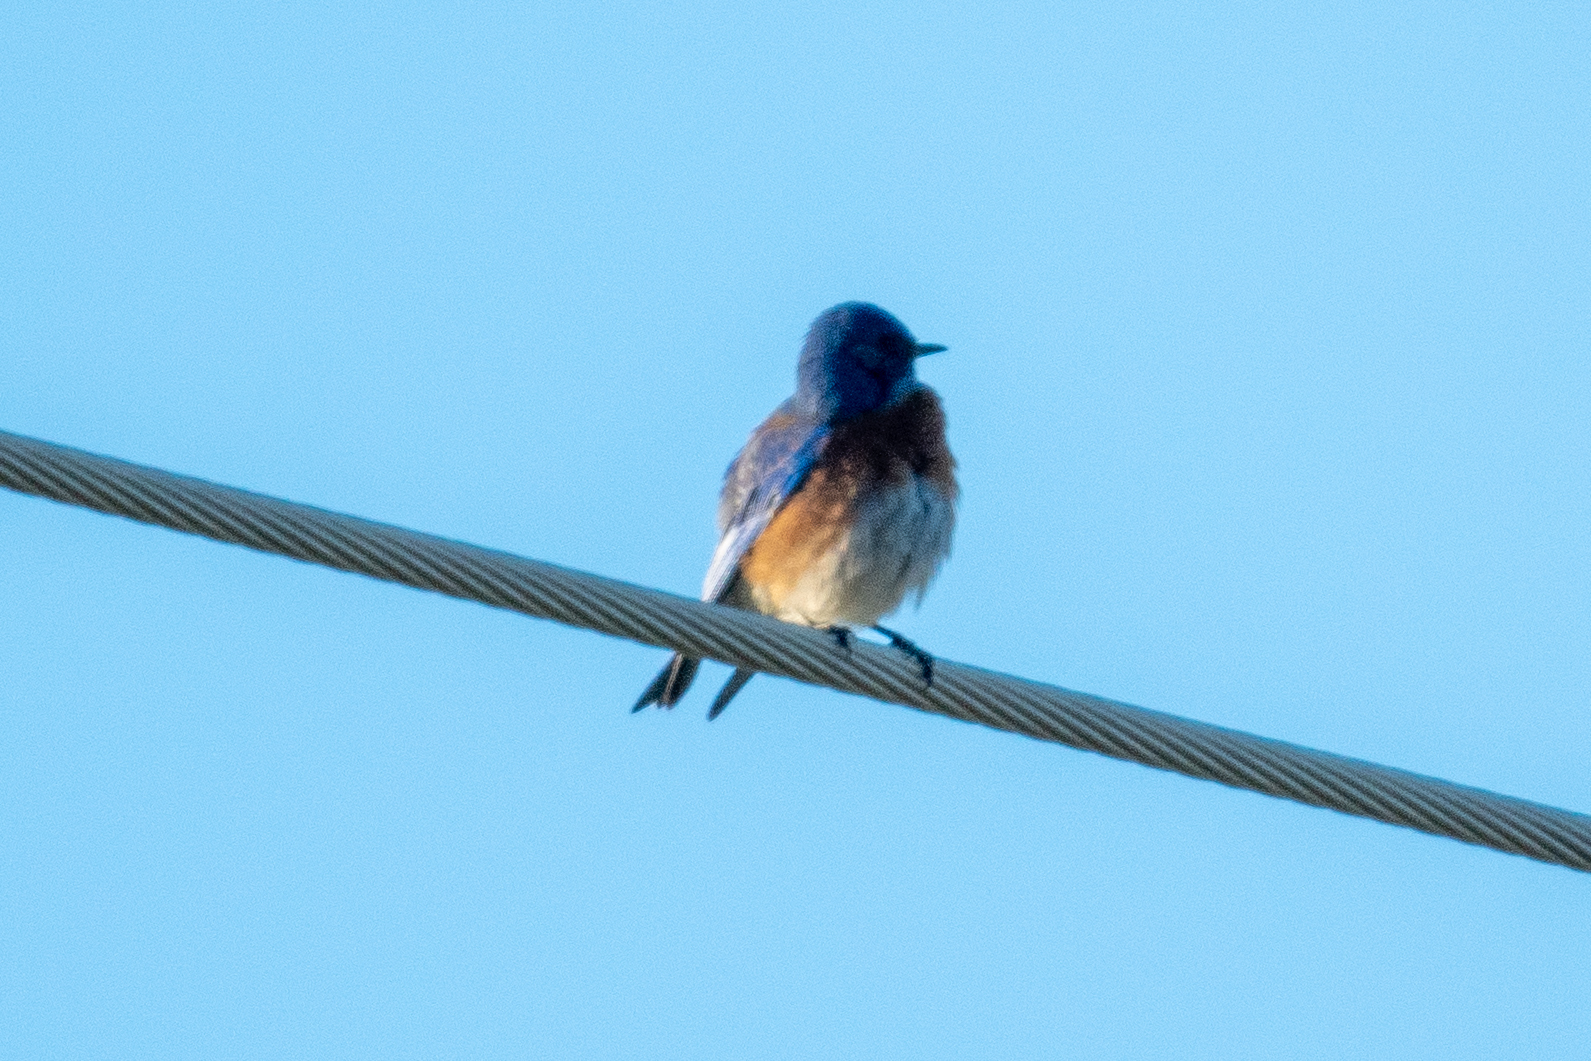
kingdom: Animalia
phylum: Chordata
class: Aves
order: Passeriformes
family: Turdidae
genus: Sialia
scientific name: Sialia mexicana
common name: Western bluebird
